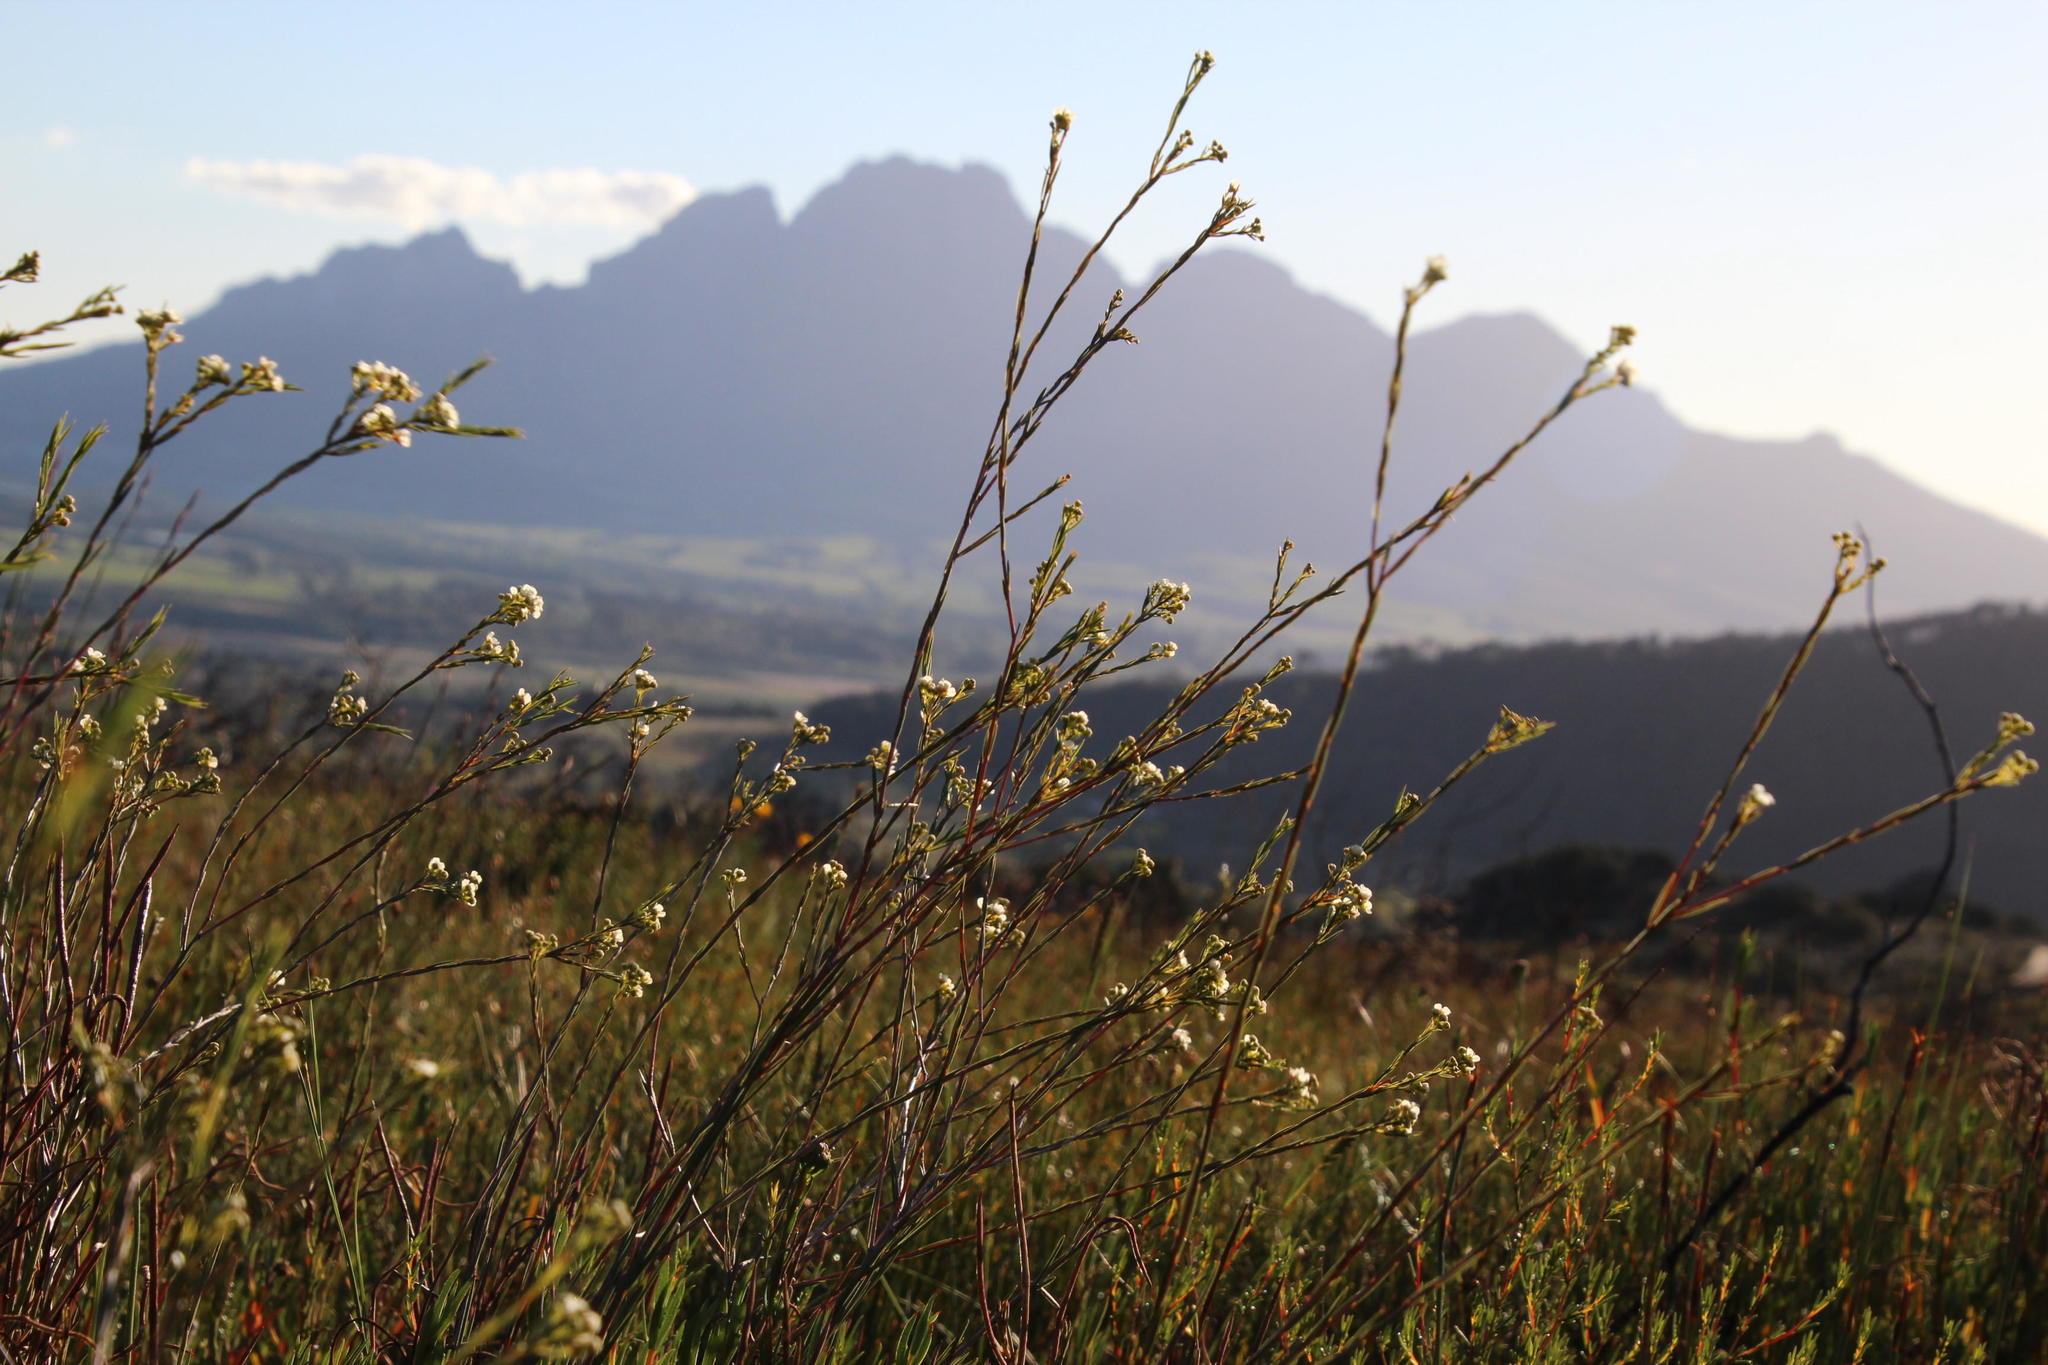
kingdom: Plantae
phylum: Tracheophyta
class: Magnoliopsida
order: Sapindales
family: Rutaceae
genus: Diosma
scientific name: Diosma hirsuta
